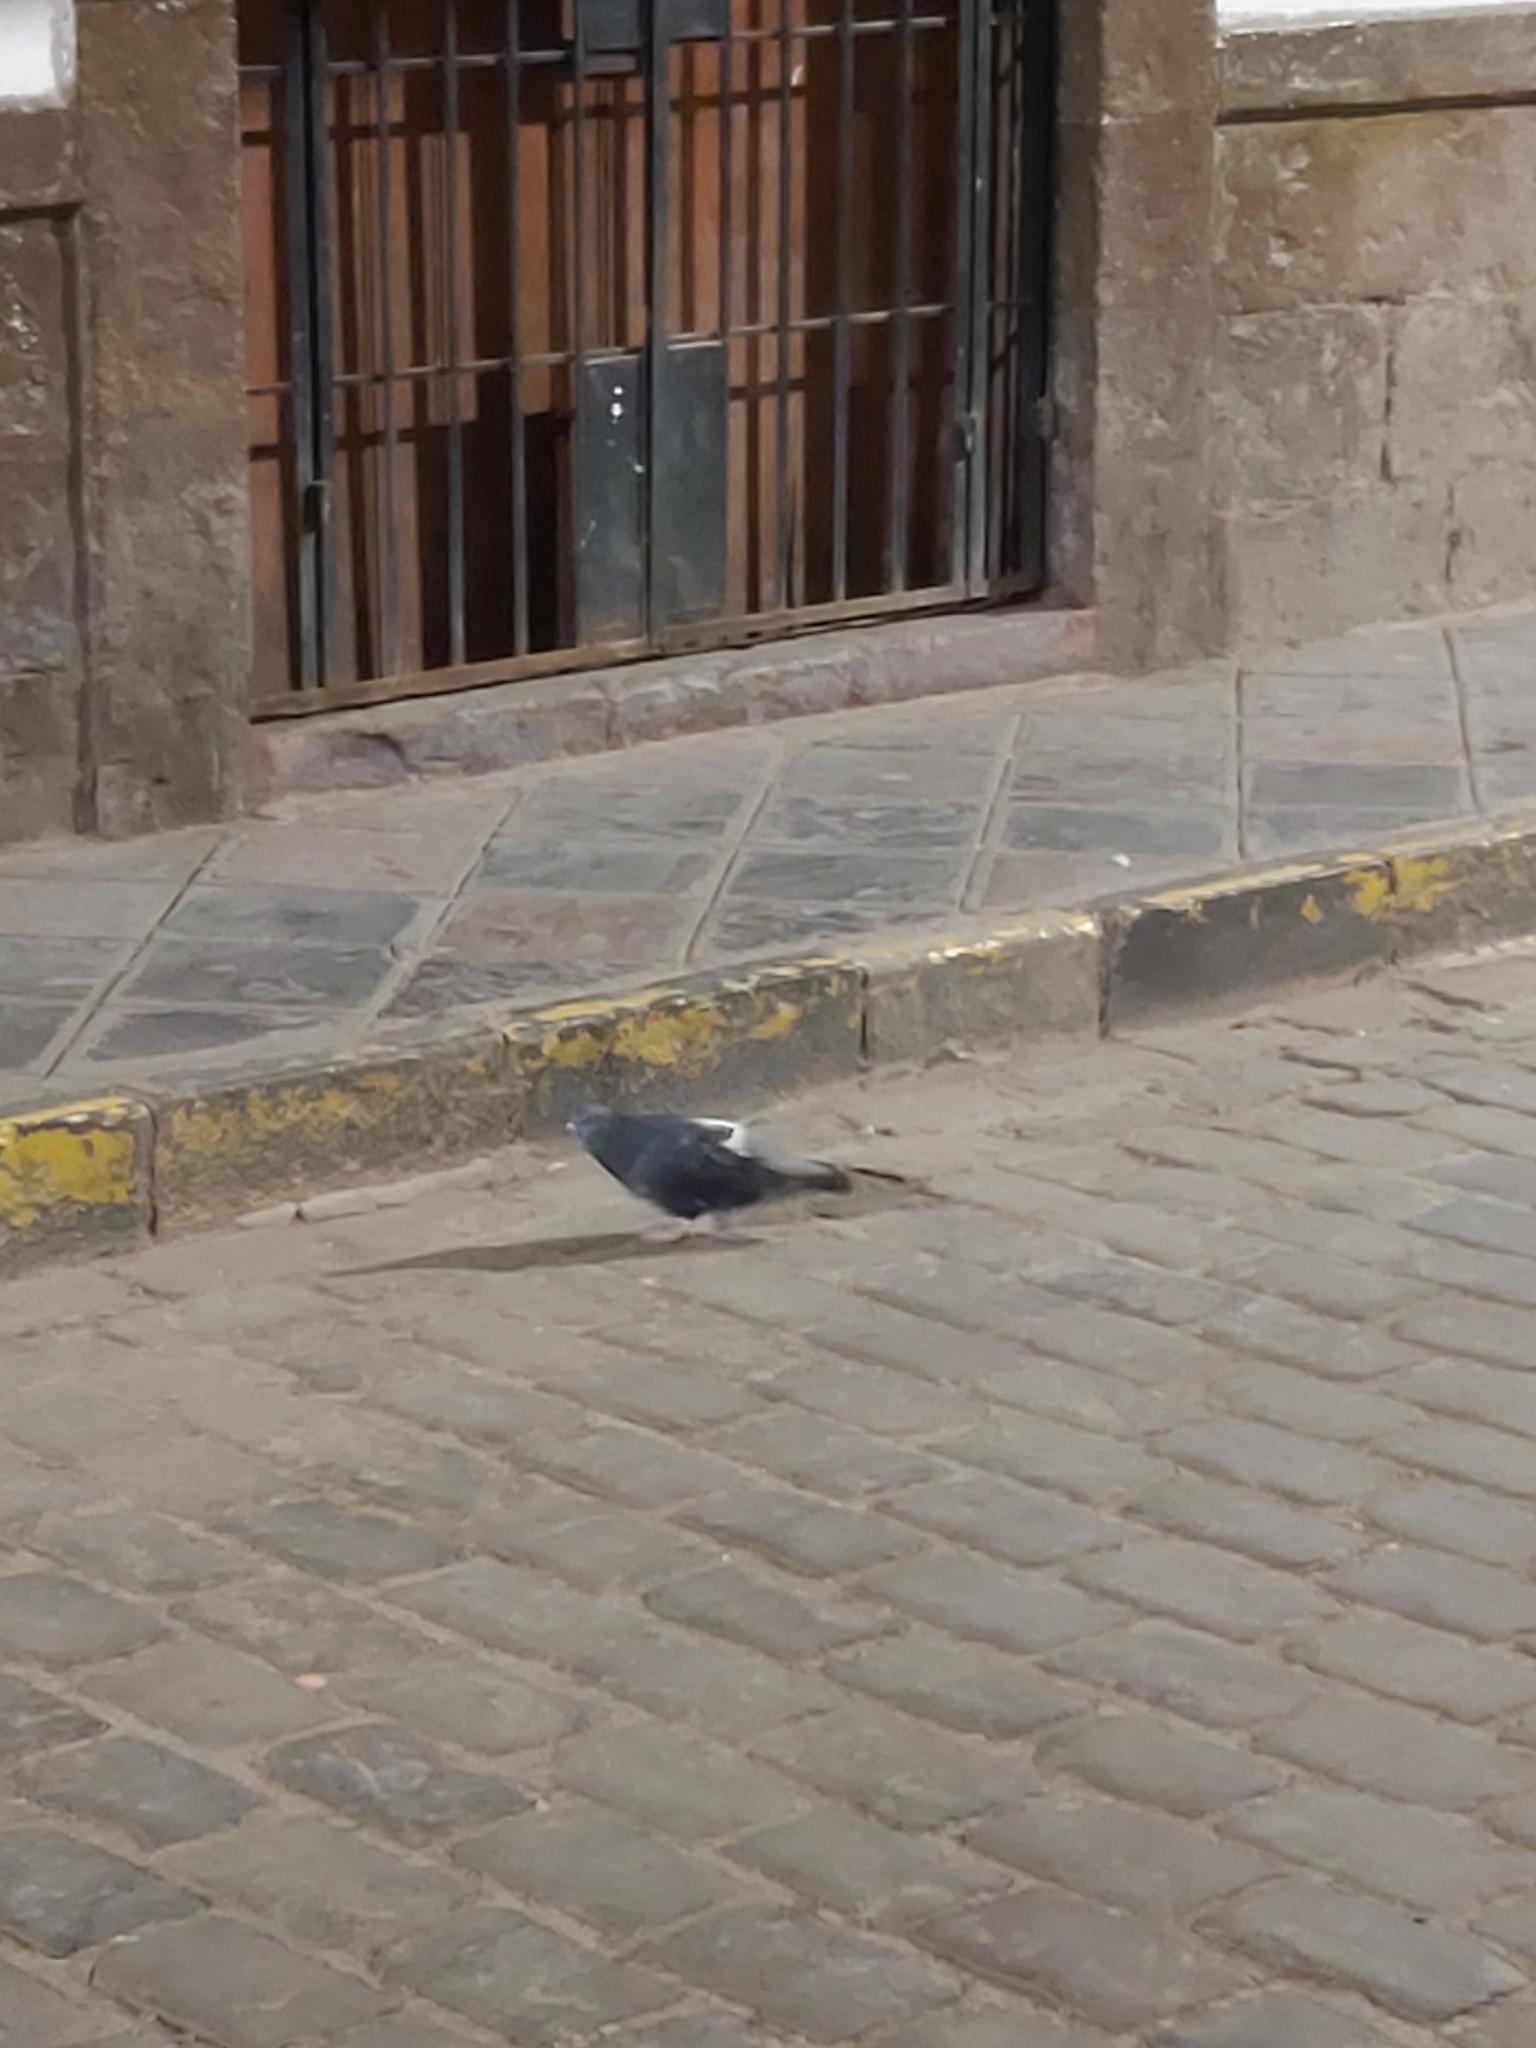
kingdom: Animalia
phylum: Chordata
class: Aves
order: Columbiformes
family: Columbidae
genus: Columba
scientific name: Columba livia
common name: Rock pigeon
